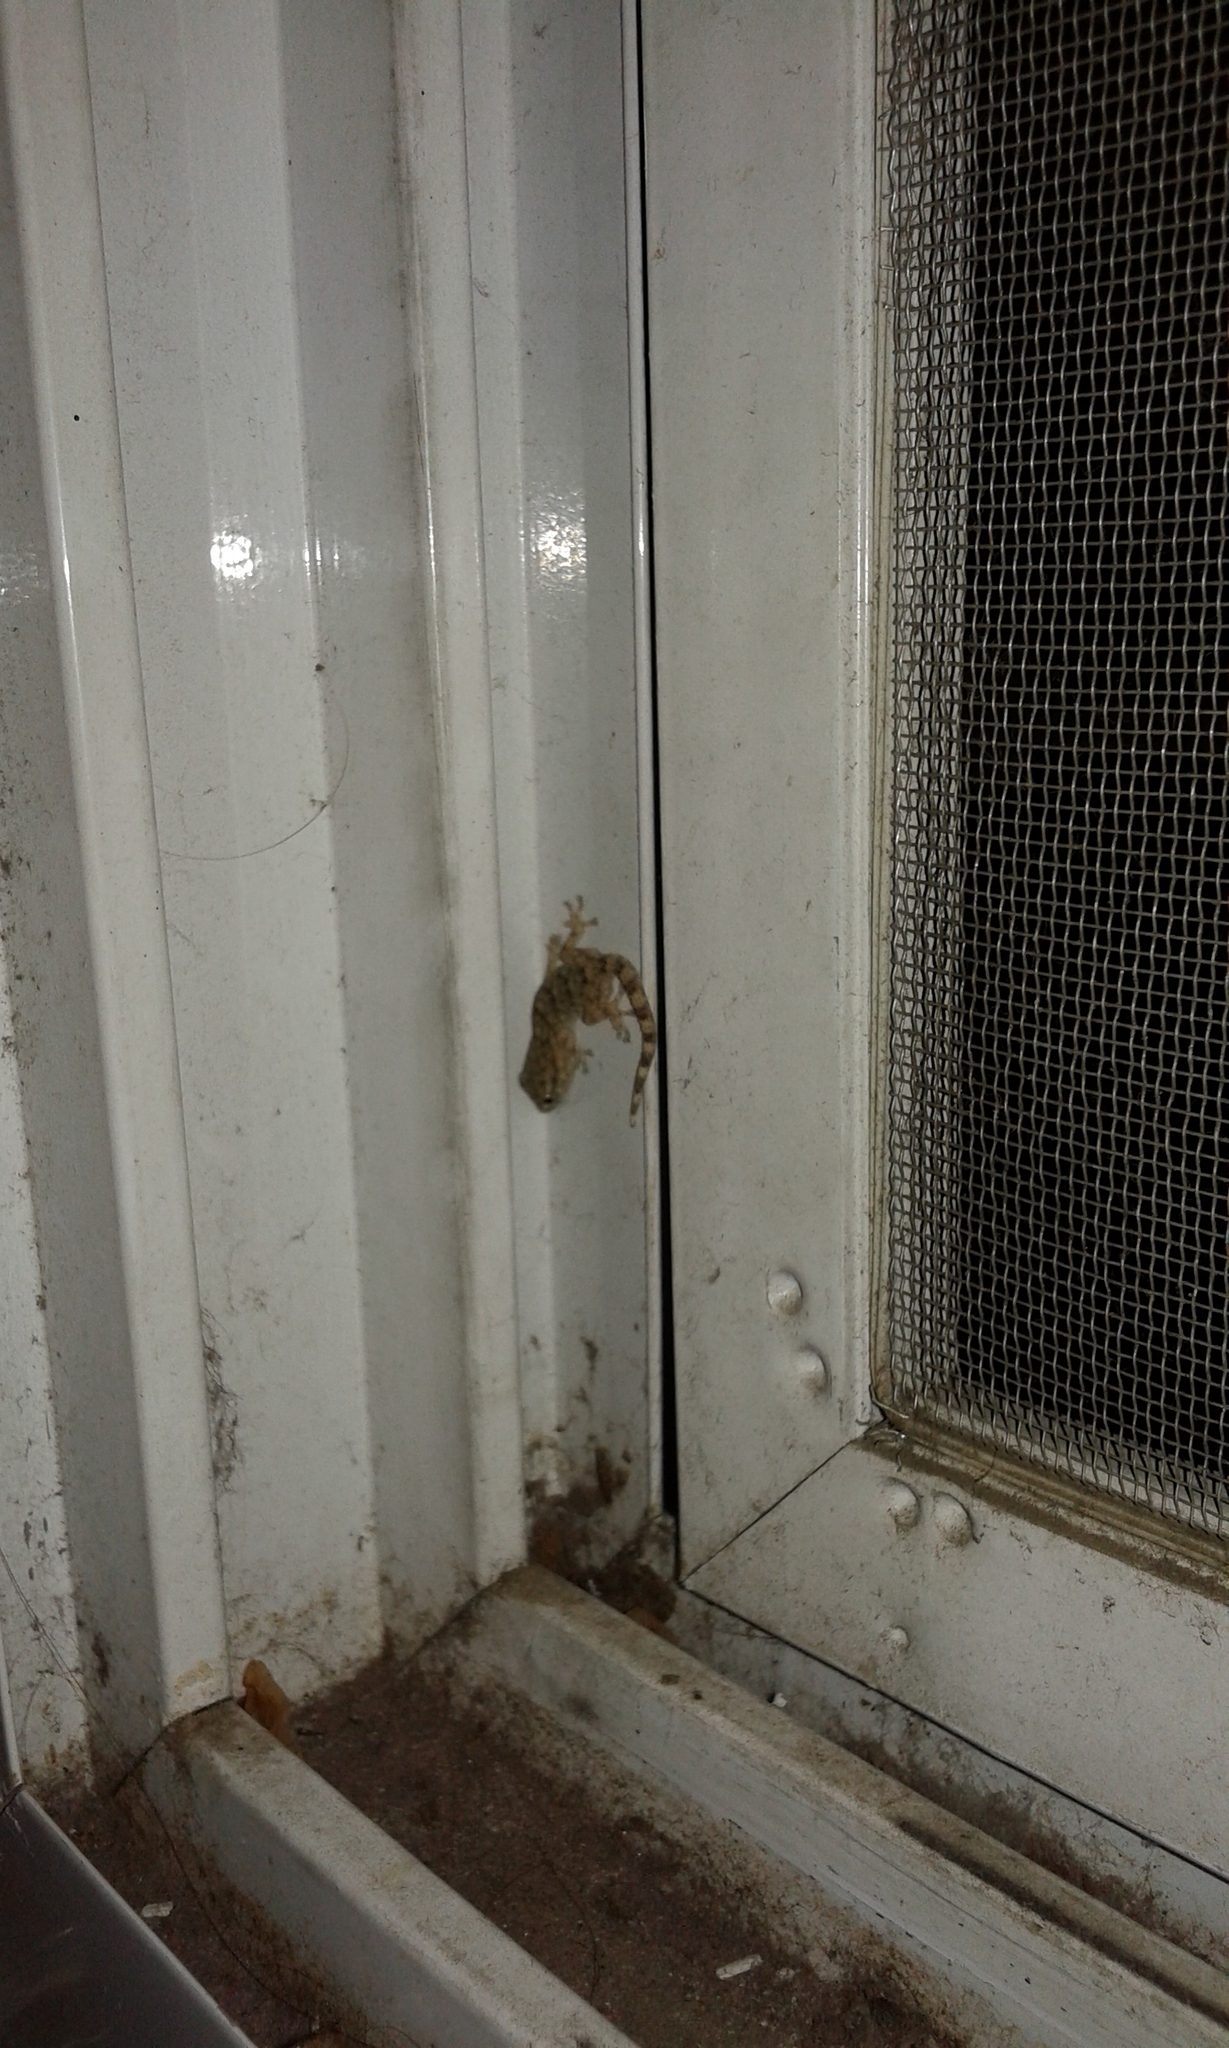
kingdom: Animalia
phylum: Chordata
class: Squamata
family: Phyllodactylidae
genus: Tarentola
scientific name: Tarentola mauritanica
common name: Moorish gecko
